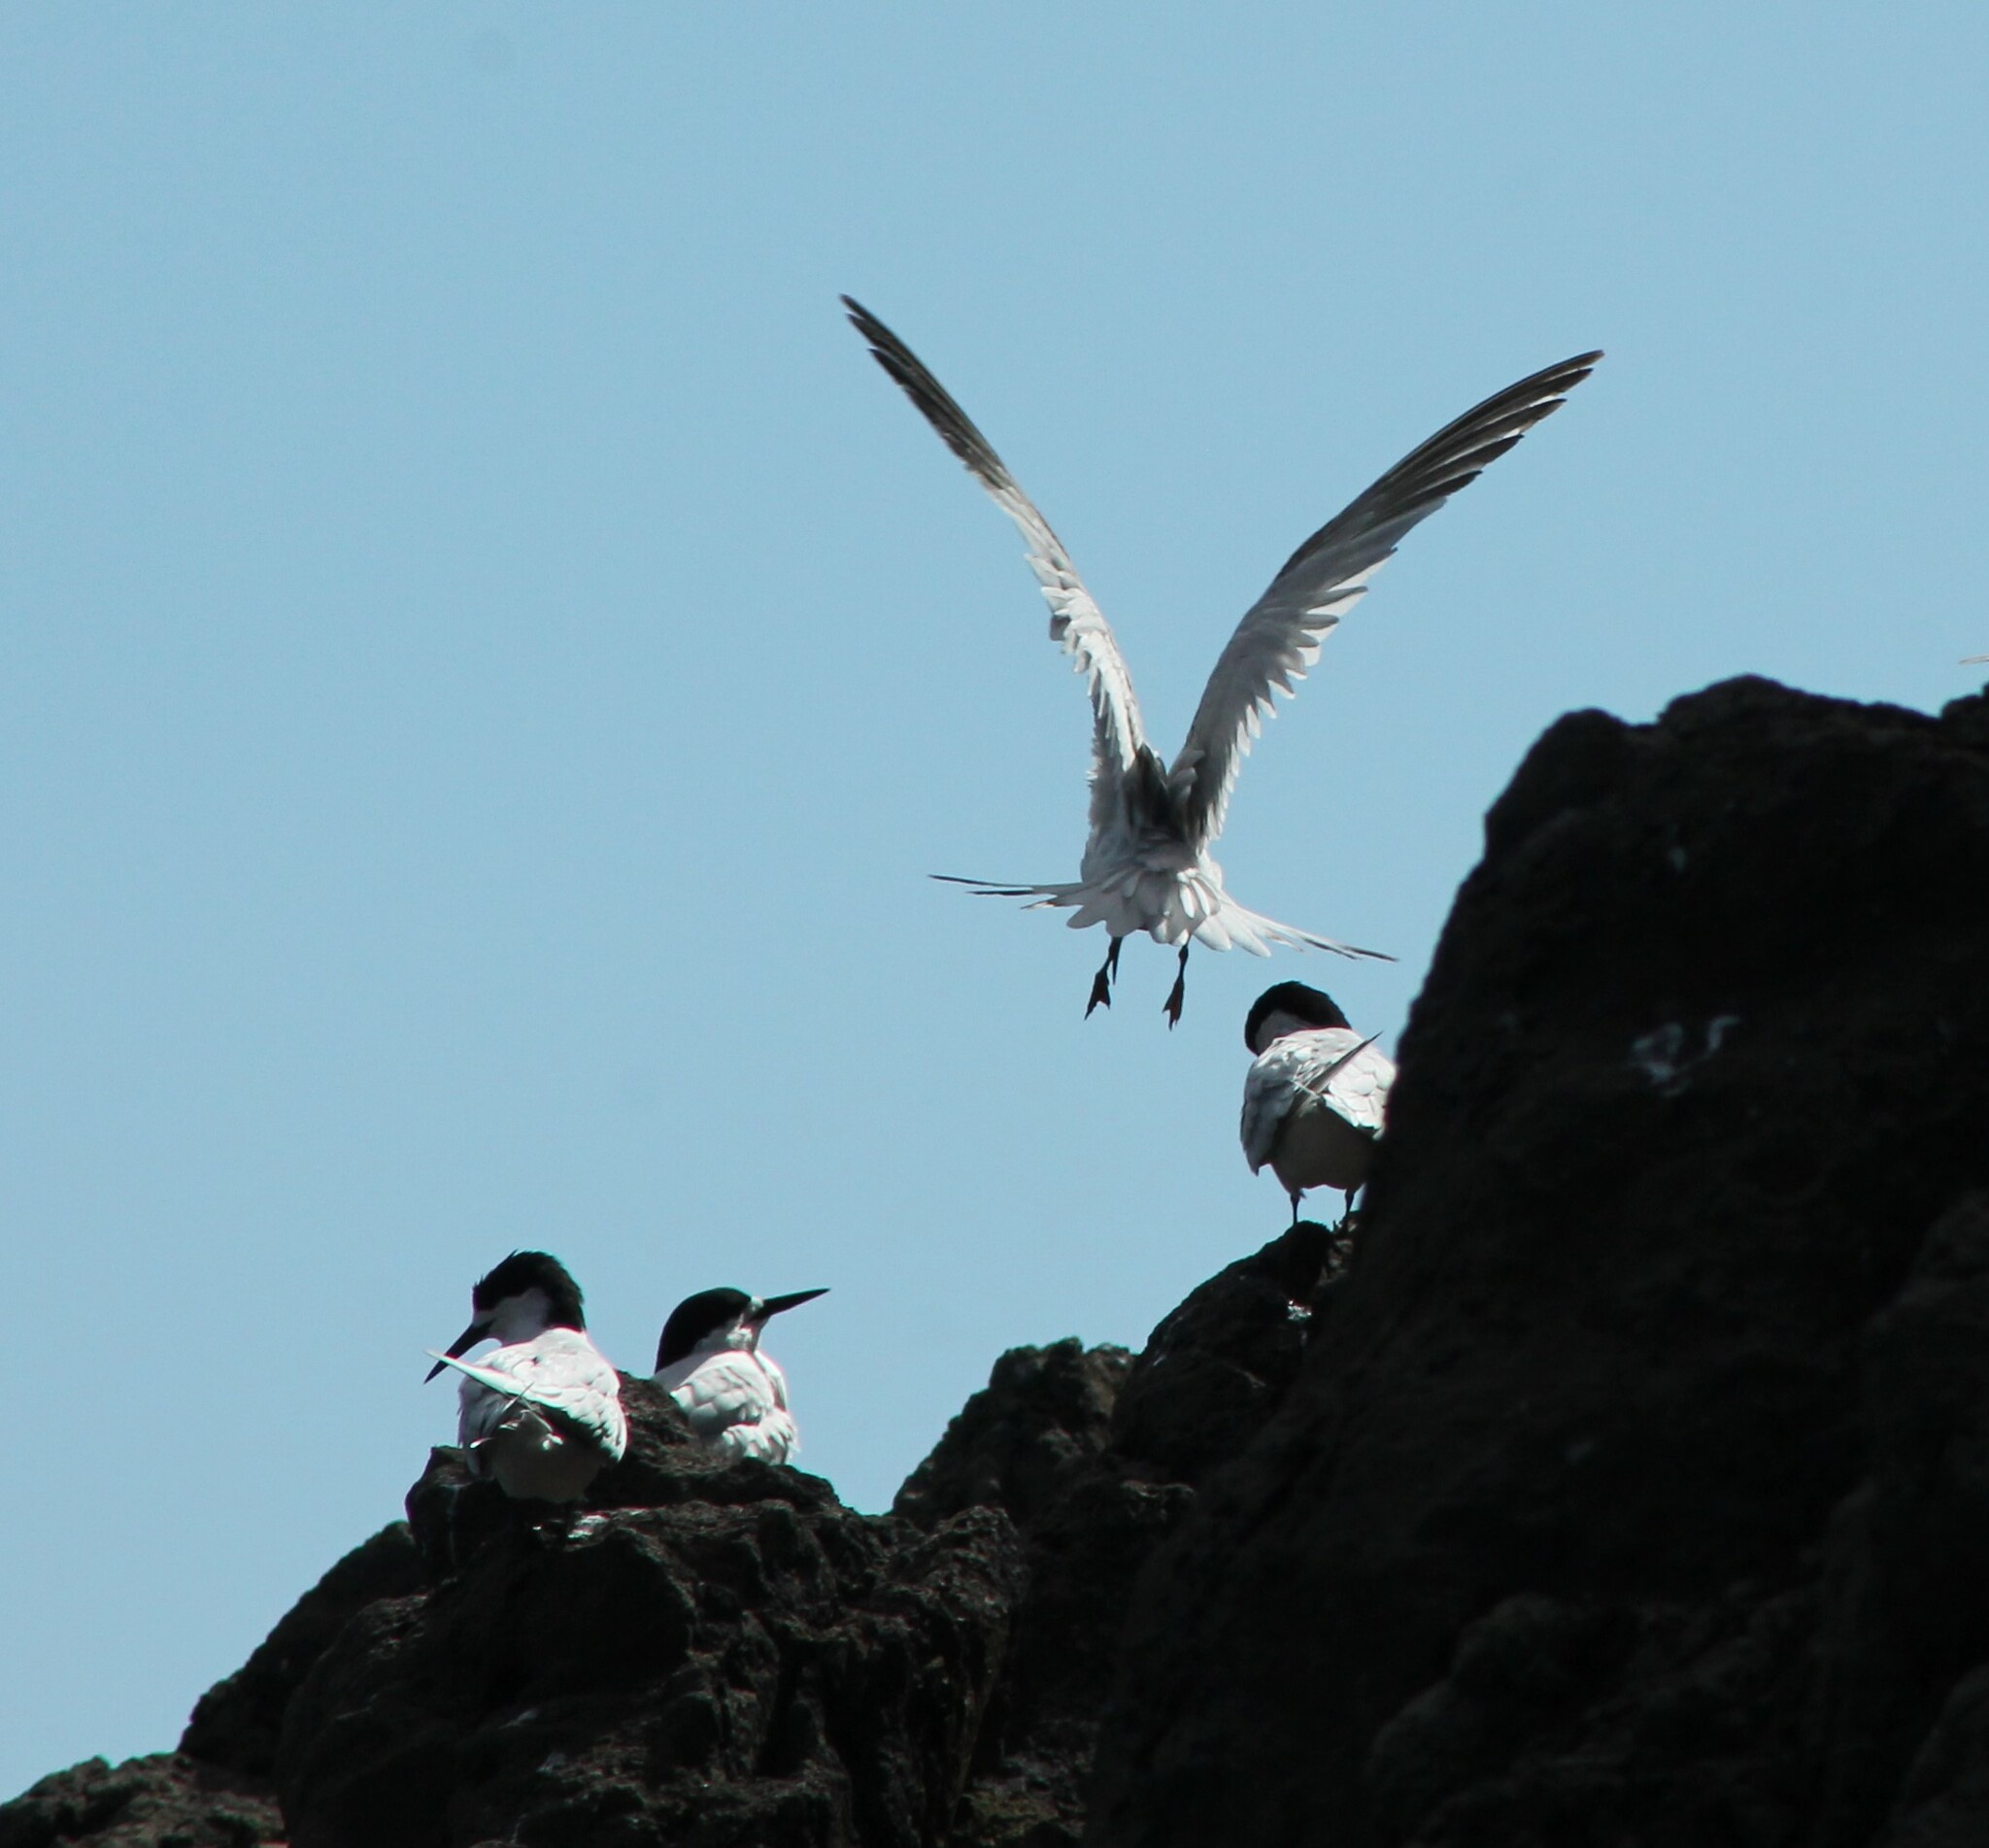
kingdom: Animalia
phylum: Chordata
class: Aves
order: Charadriiformes
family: Laridae
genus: Sterna
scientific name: Sterna striata
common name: White-fronted tern
